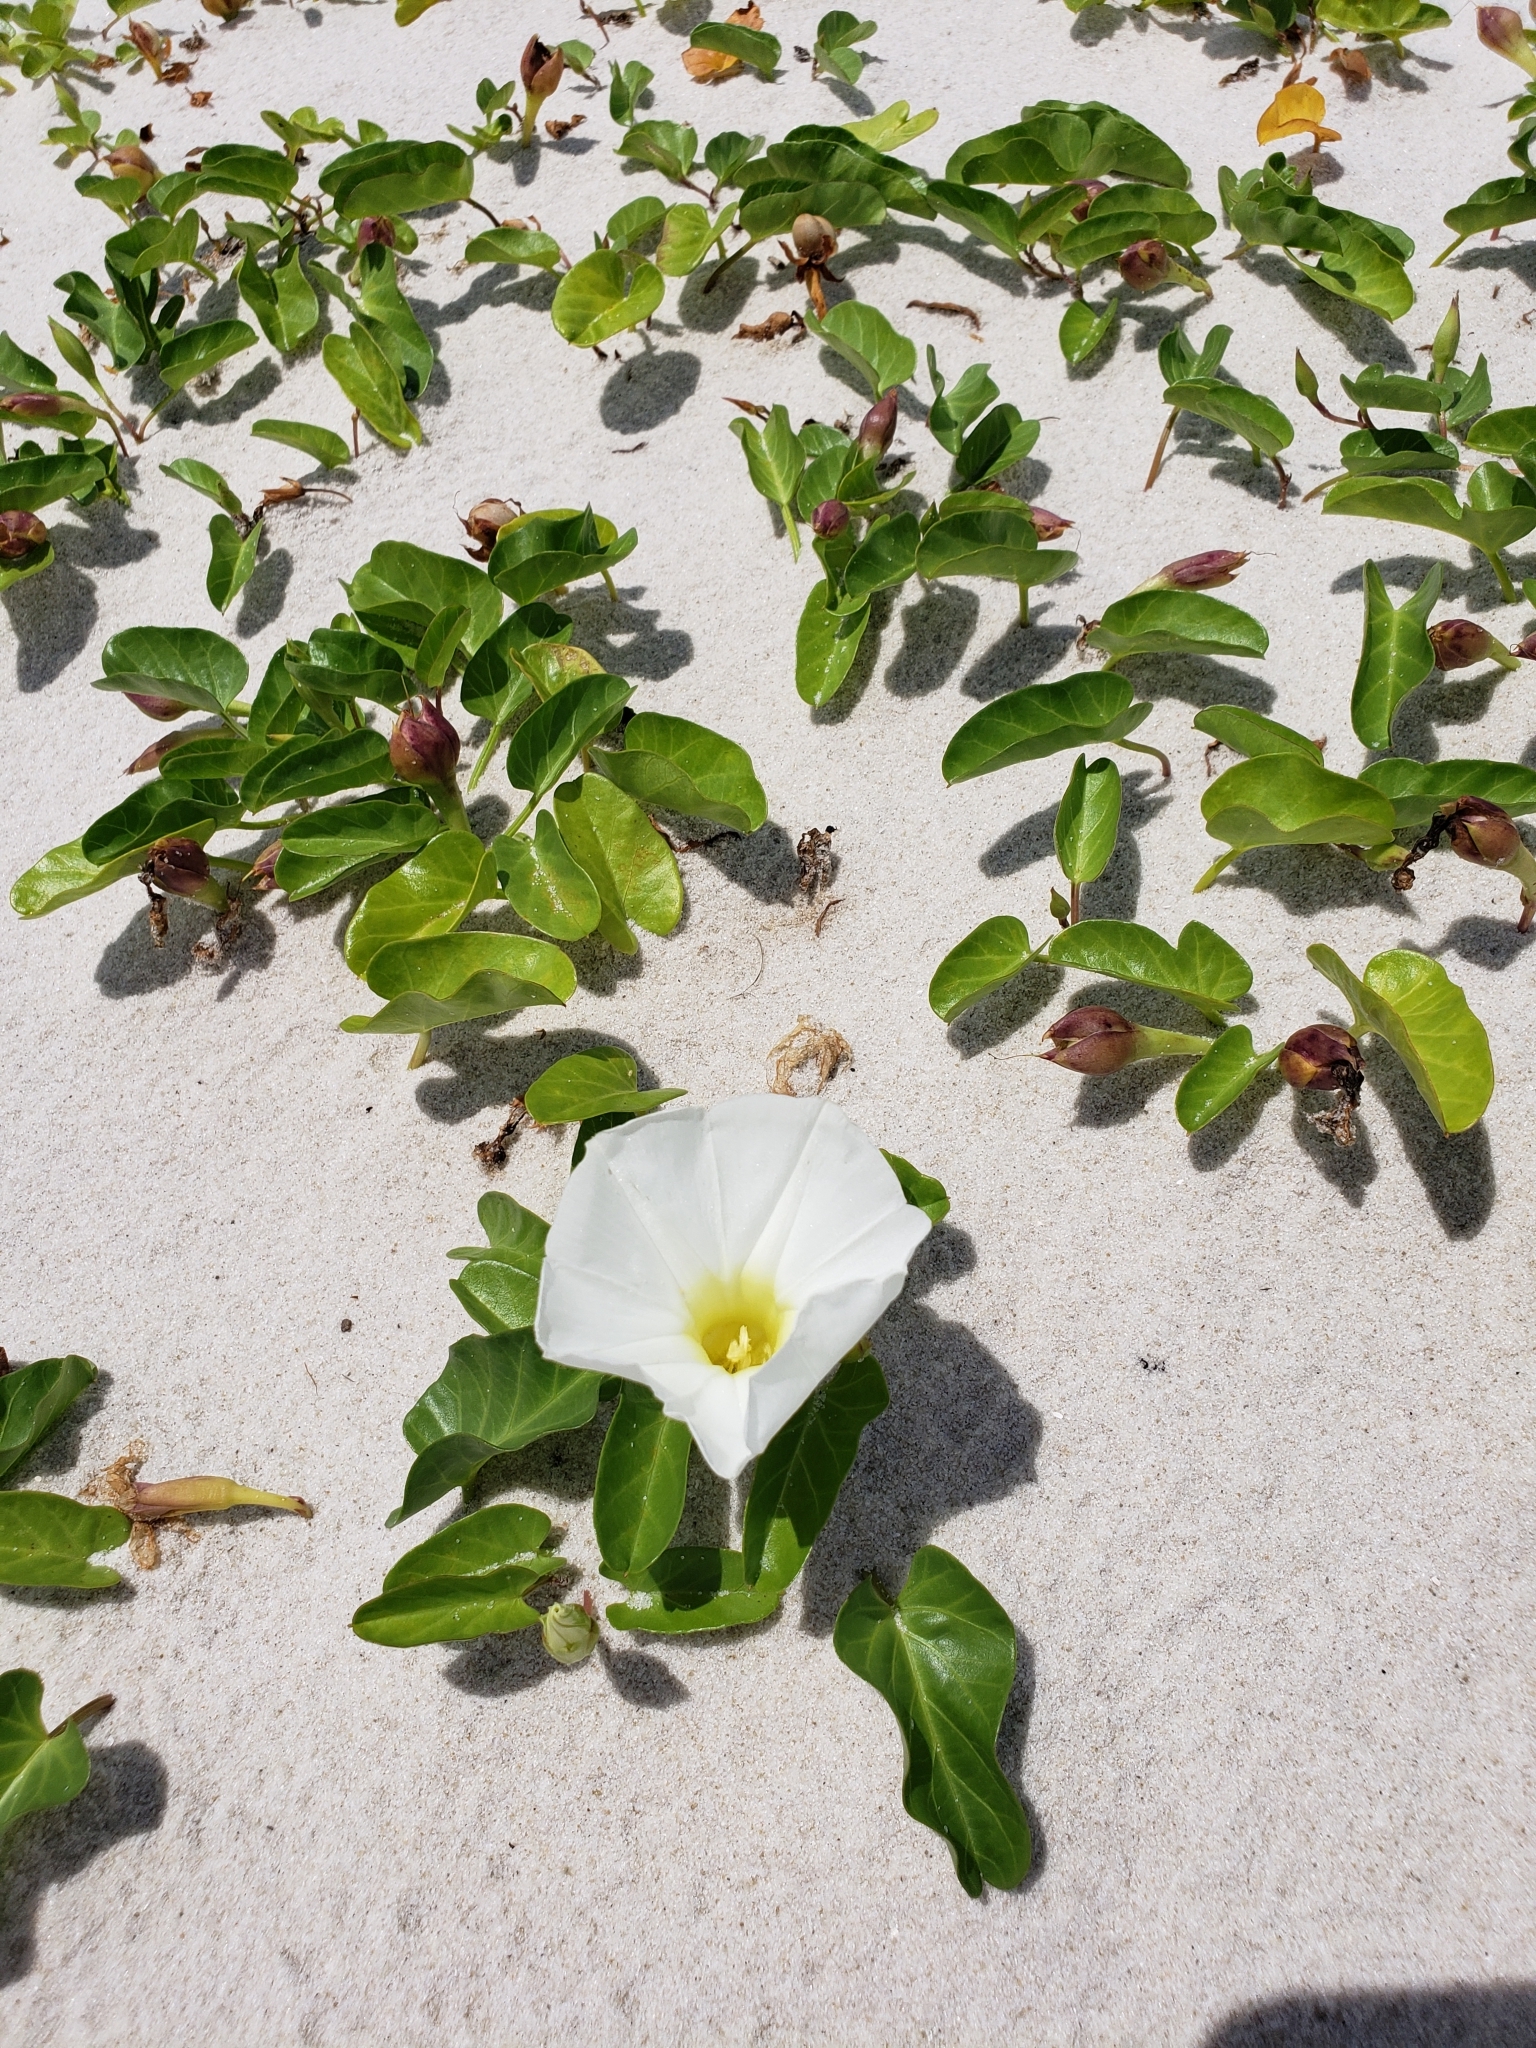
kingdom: Plantae
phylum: Tracheophyta
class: Magnoliopsida
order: Solanales
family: Convolvulaceae
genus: Ipomoea
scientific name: Ipomoea imperati
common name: Fiddle-leaf morning-glory
